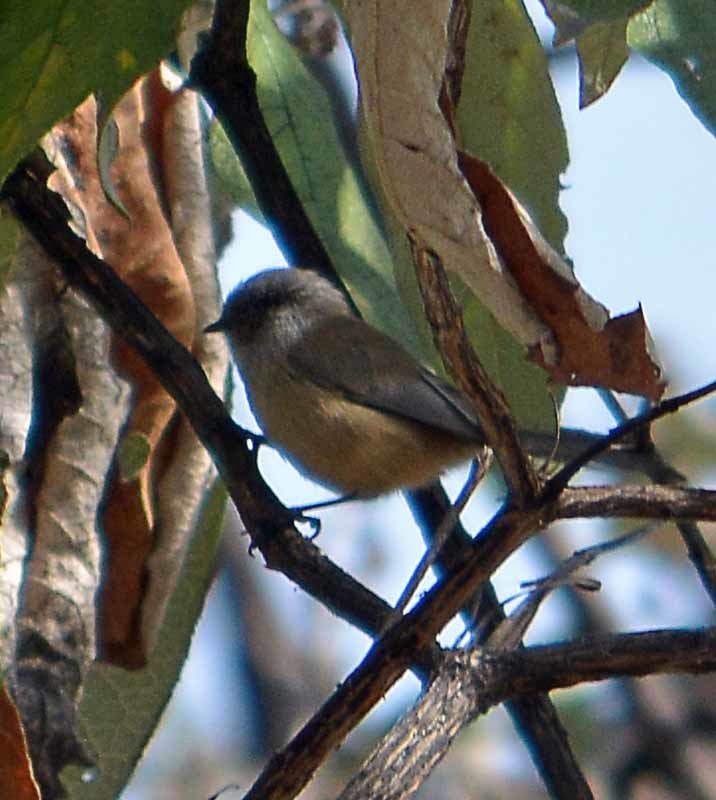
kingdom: Animalia
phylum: Chordata
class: Aves
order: Passeriformes
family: Aegithalidae
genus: Psaltriparus
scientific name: Psaltriparus minimus
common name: American bushtit
